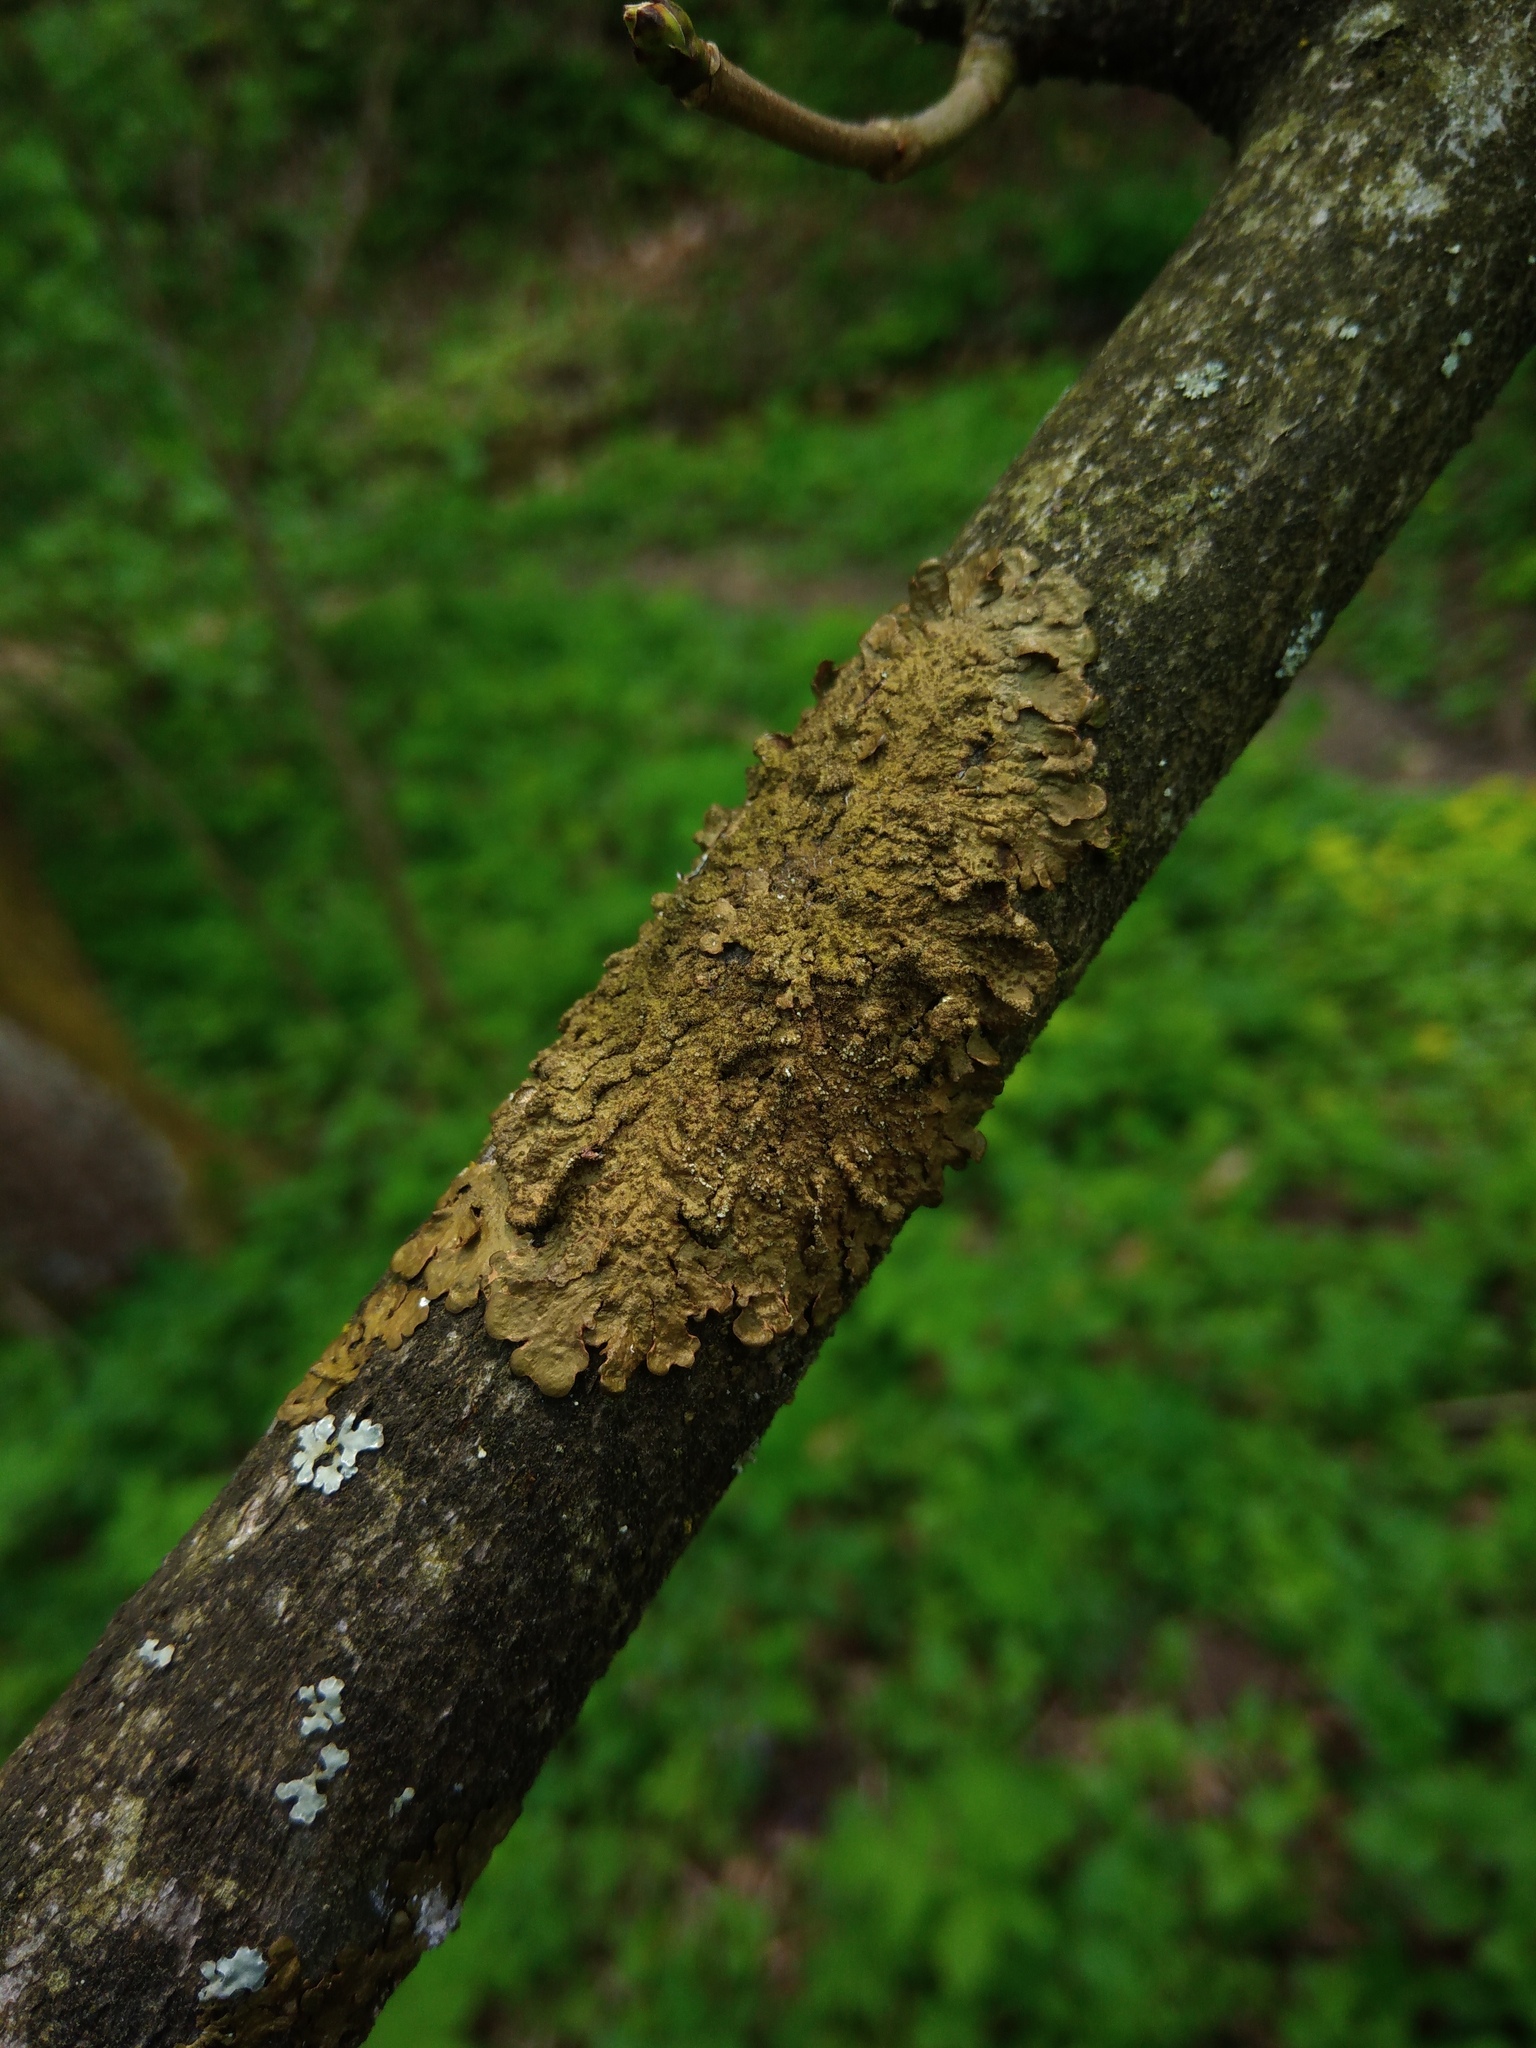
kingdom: Fungi
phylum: Ascomycota
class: Lecanoromycetes
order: Lecanorales
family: Parmeliaceae
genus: Melanelixia
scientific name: Melanelixia glabratula
